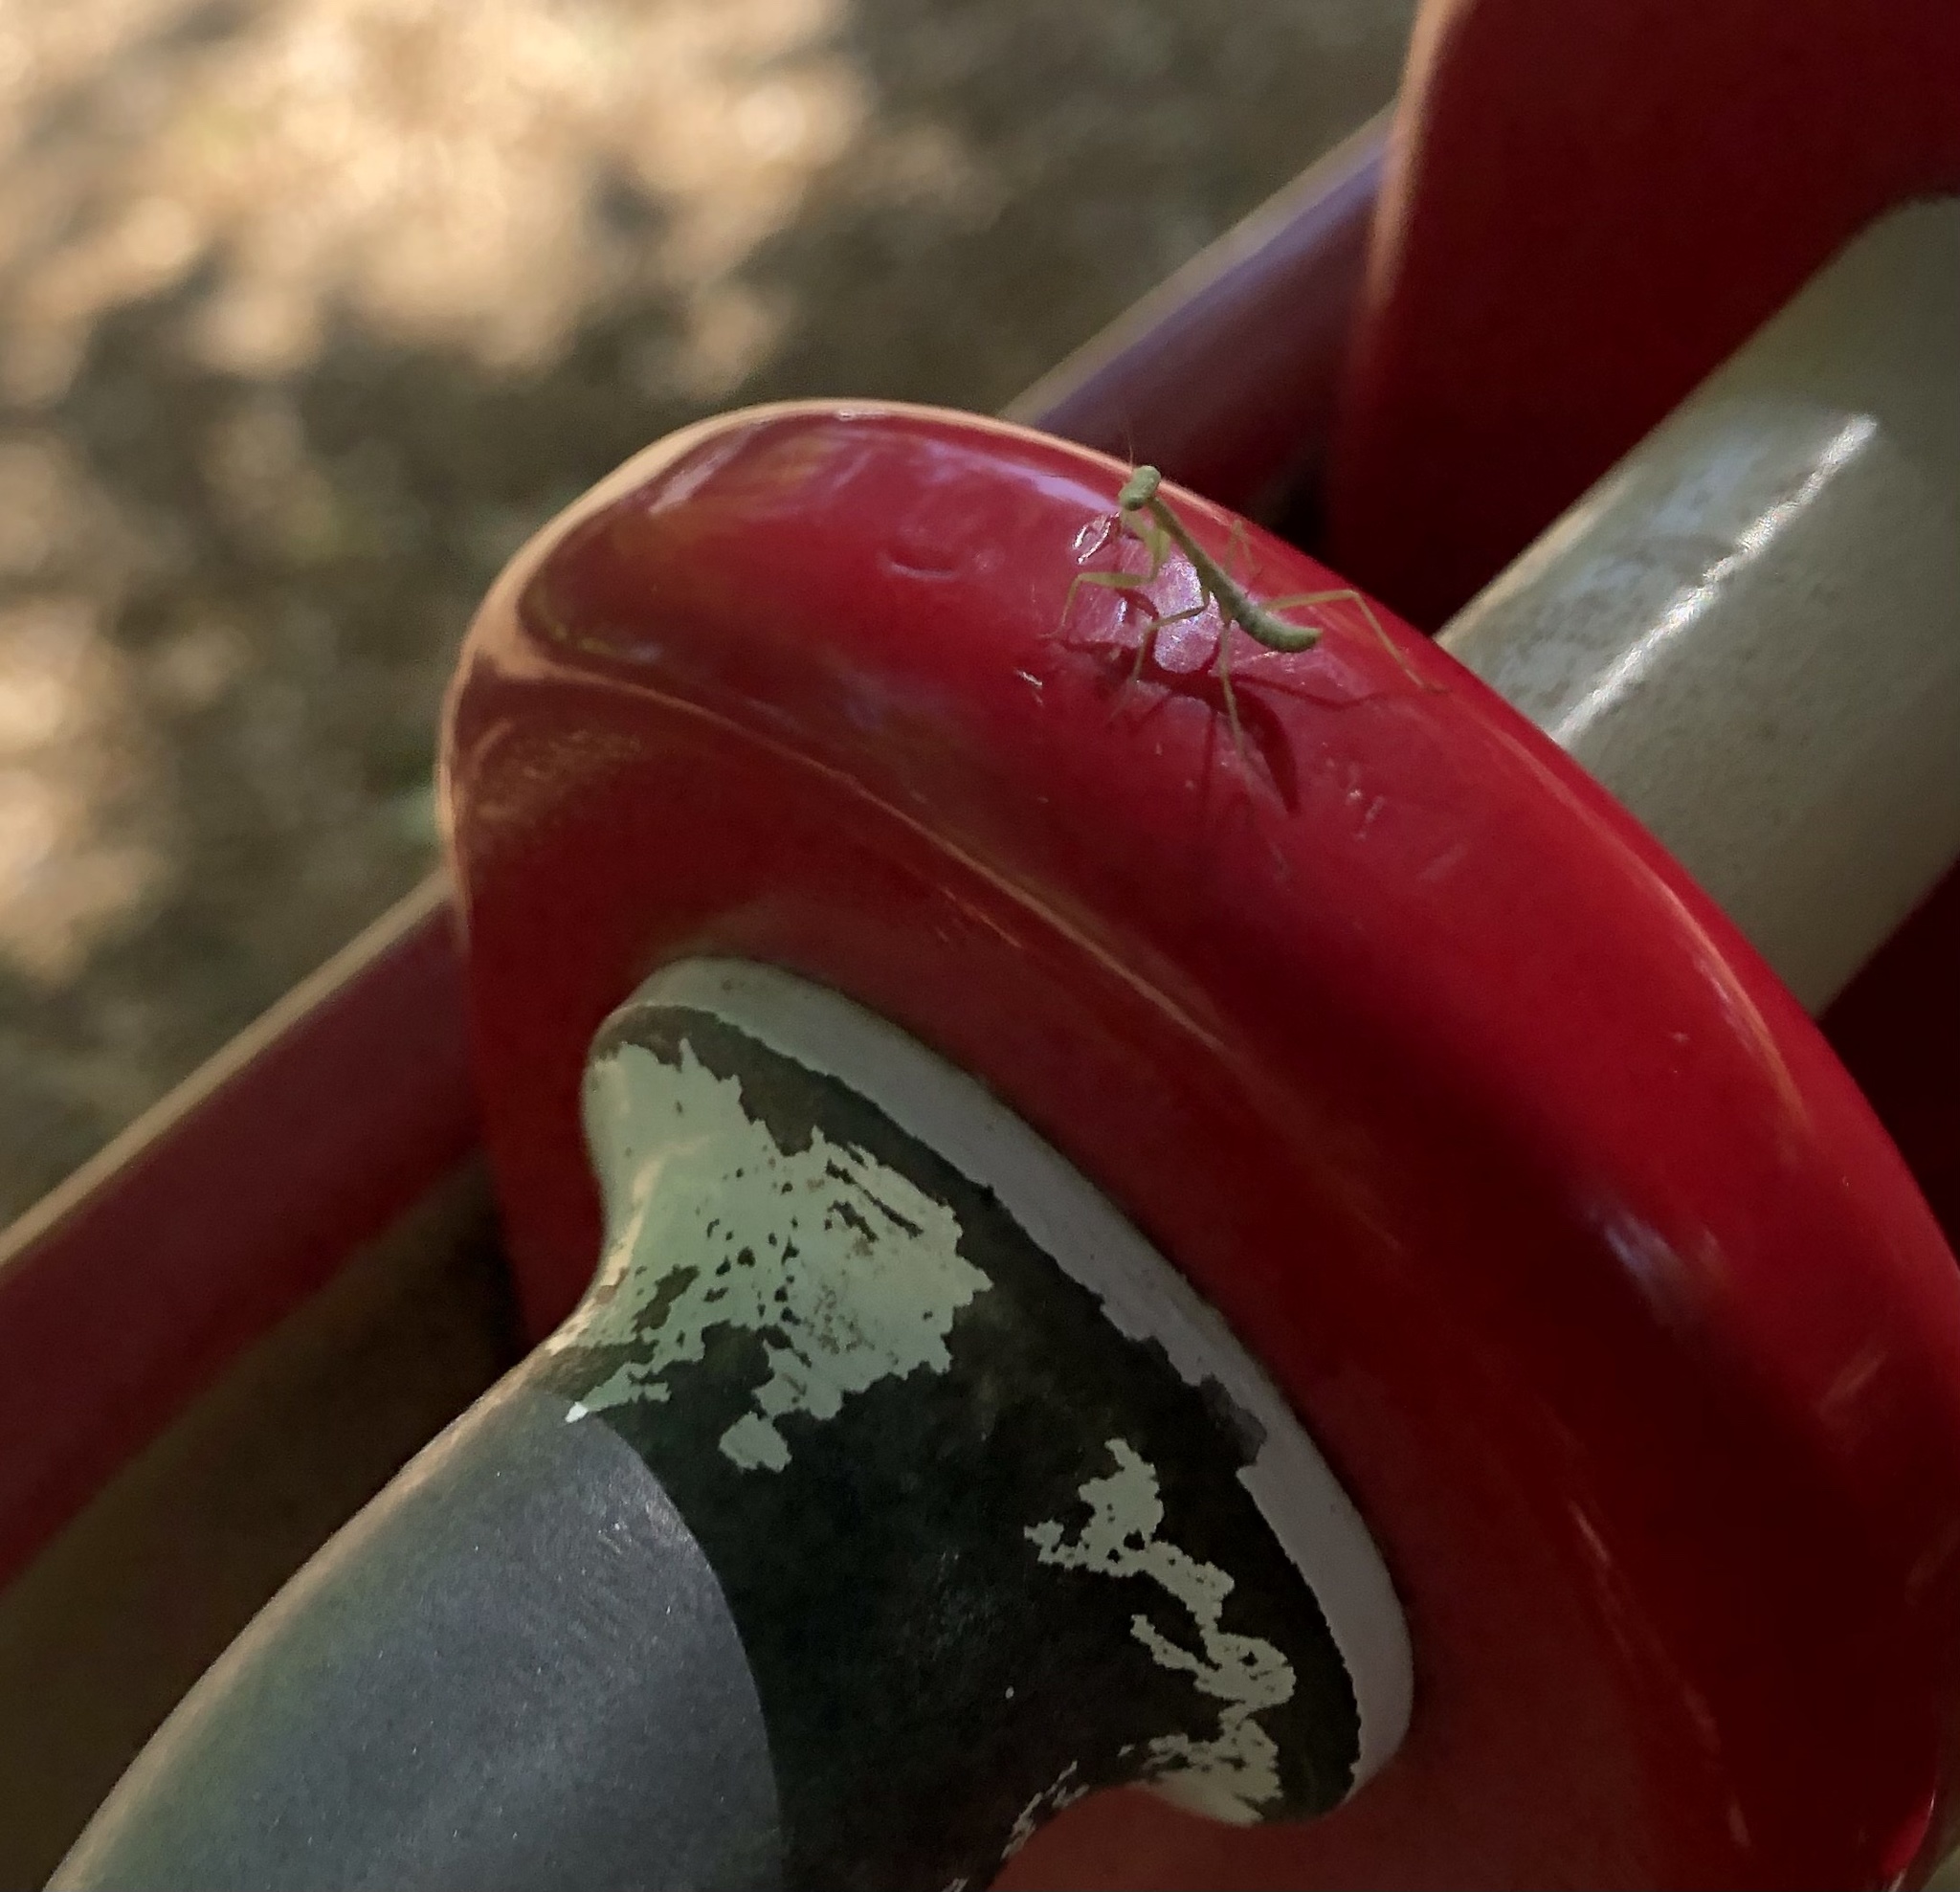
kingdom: Animalia
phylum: Arthropoda
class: Insecta
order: Mantodea
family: Mantidae
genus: Stagmomantis
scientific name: Stagmomantis limbata
